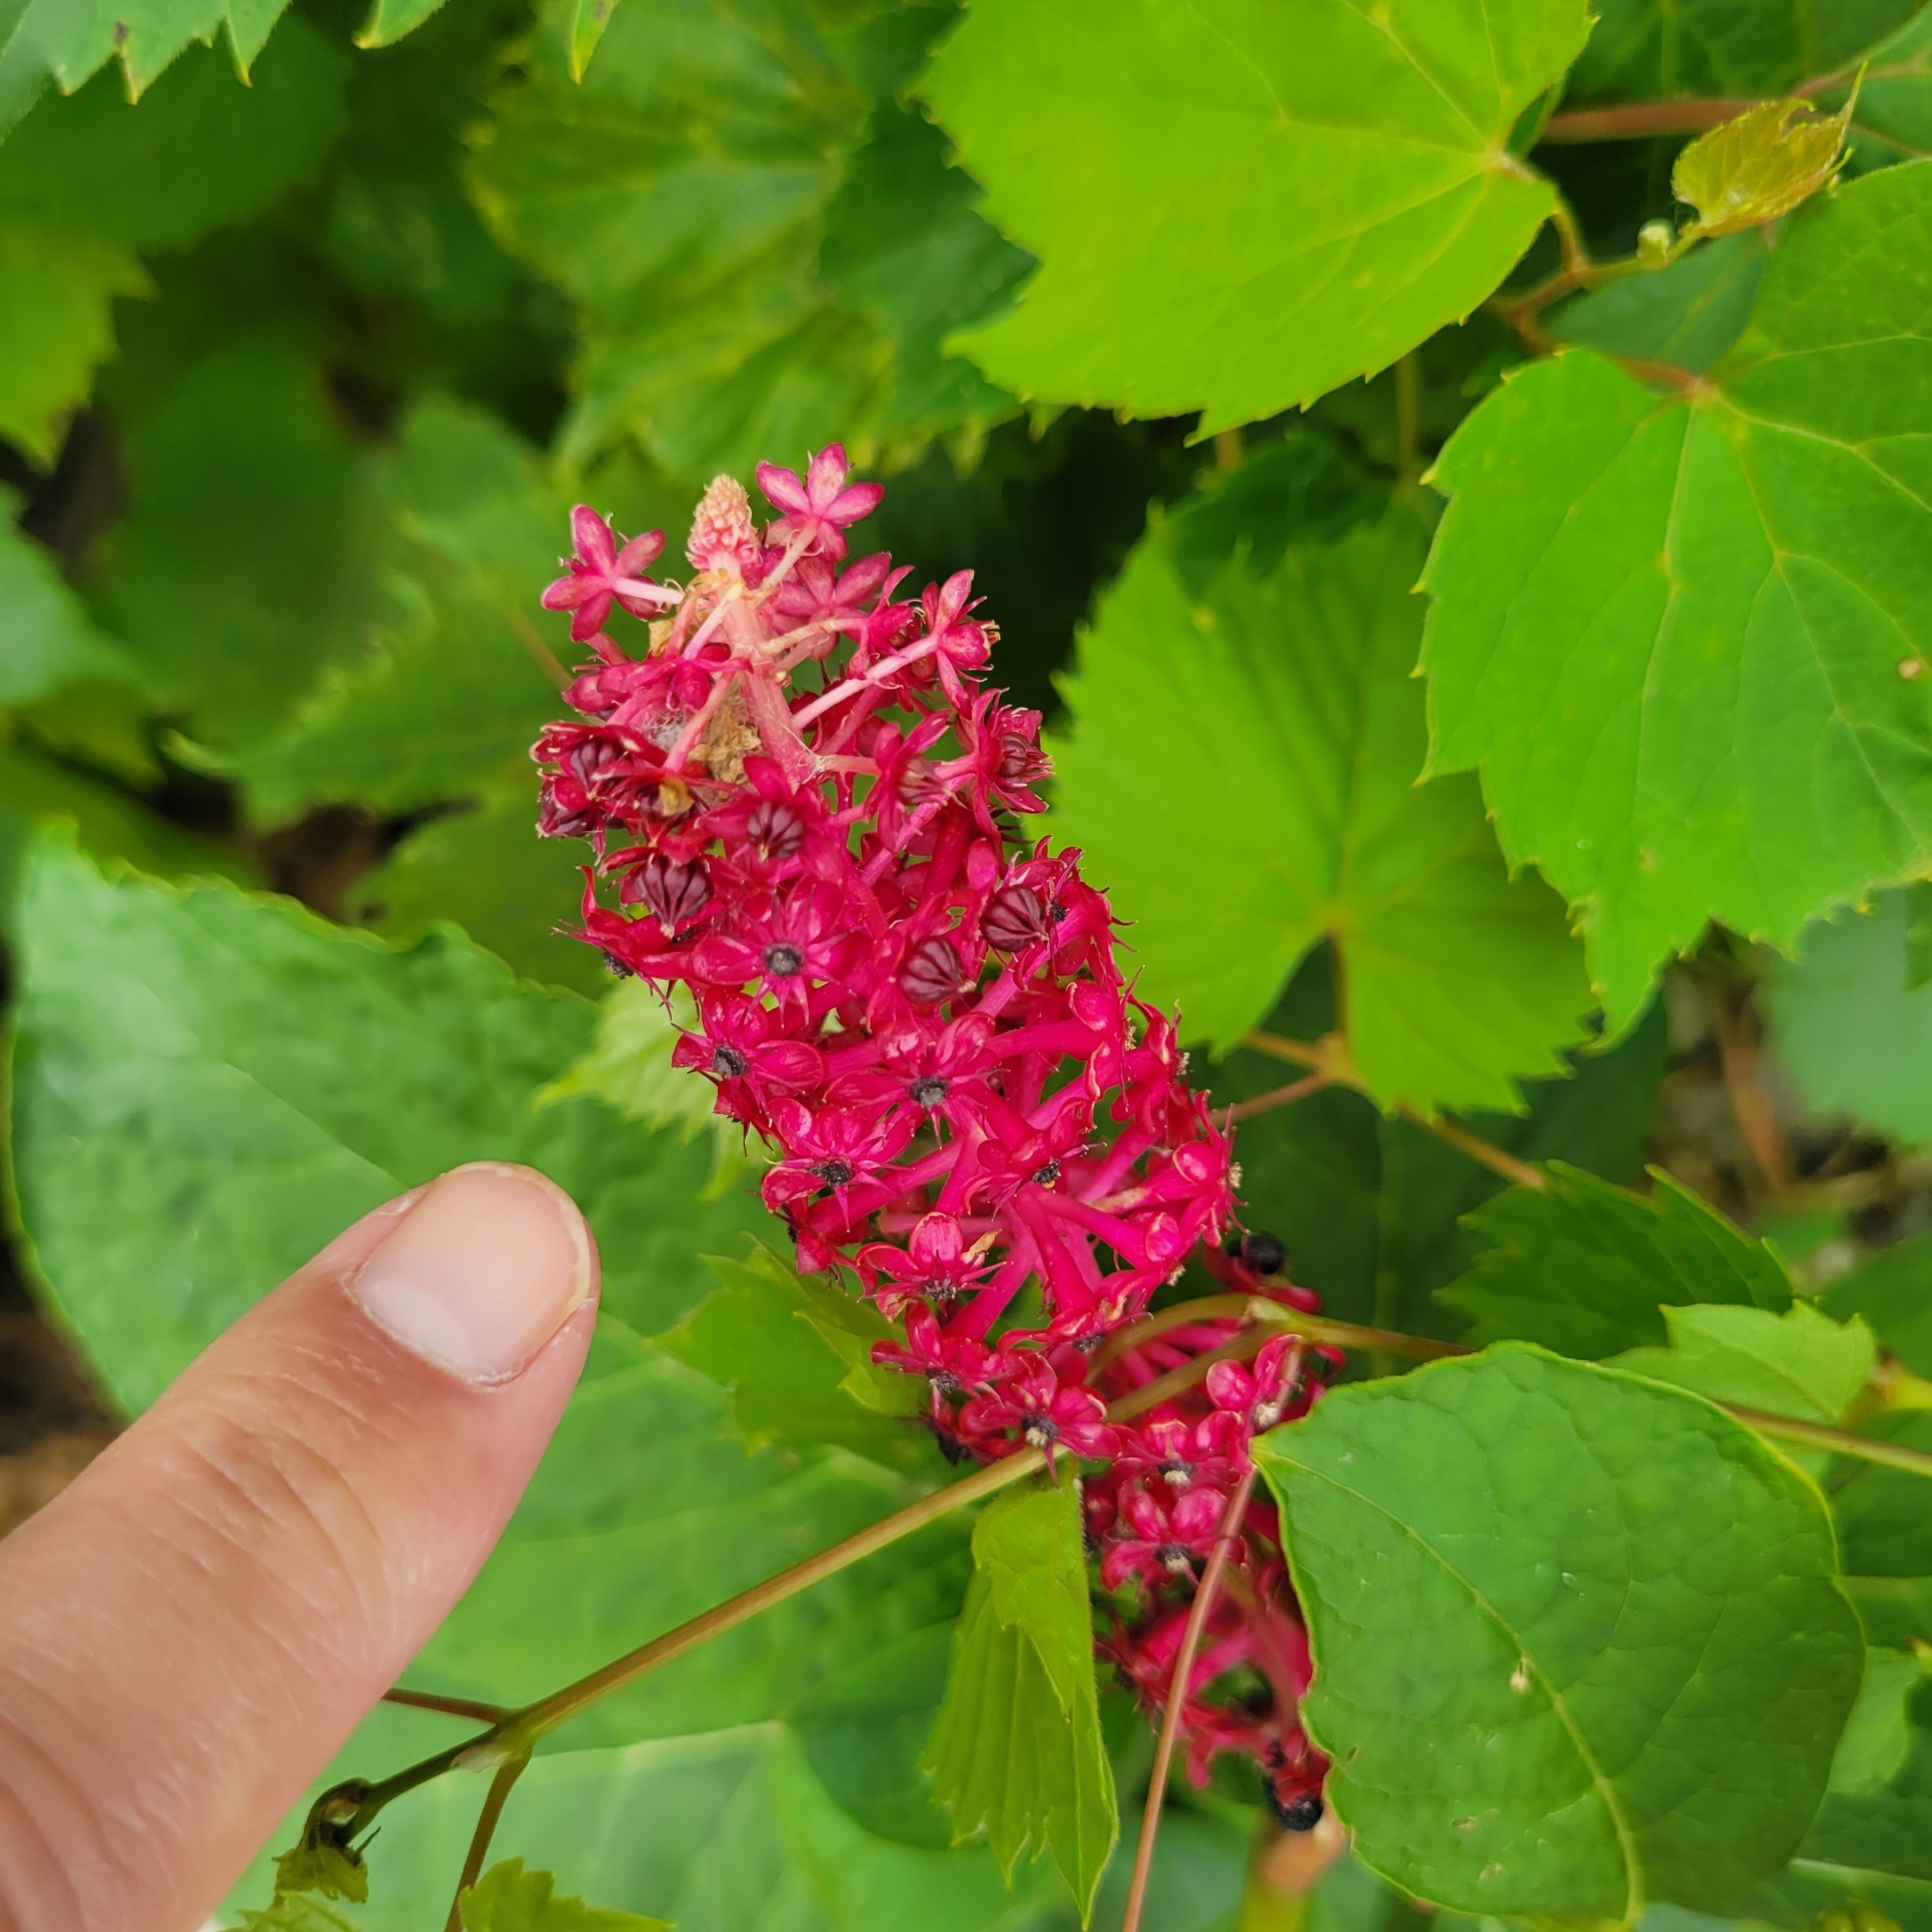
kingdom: Plantae
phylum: Tracheophyta
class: Magnoliopsida
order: Caryophyllales
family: Phytolaccaceae
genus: Phytolacca
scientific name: Phytolacca acinosa
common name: Indian pokeweed
